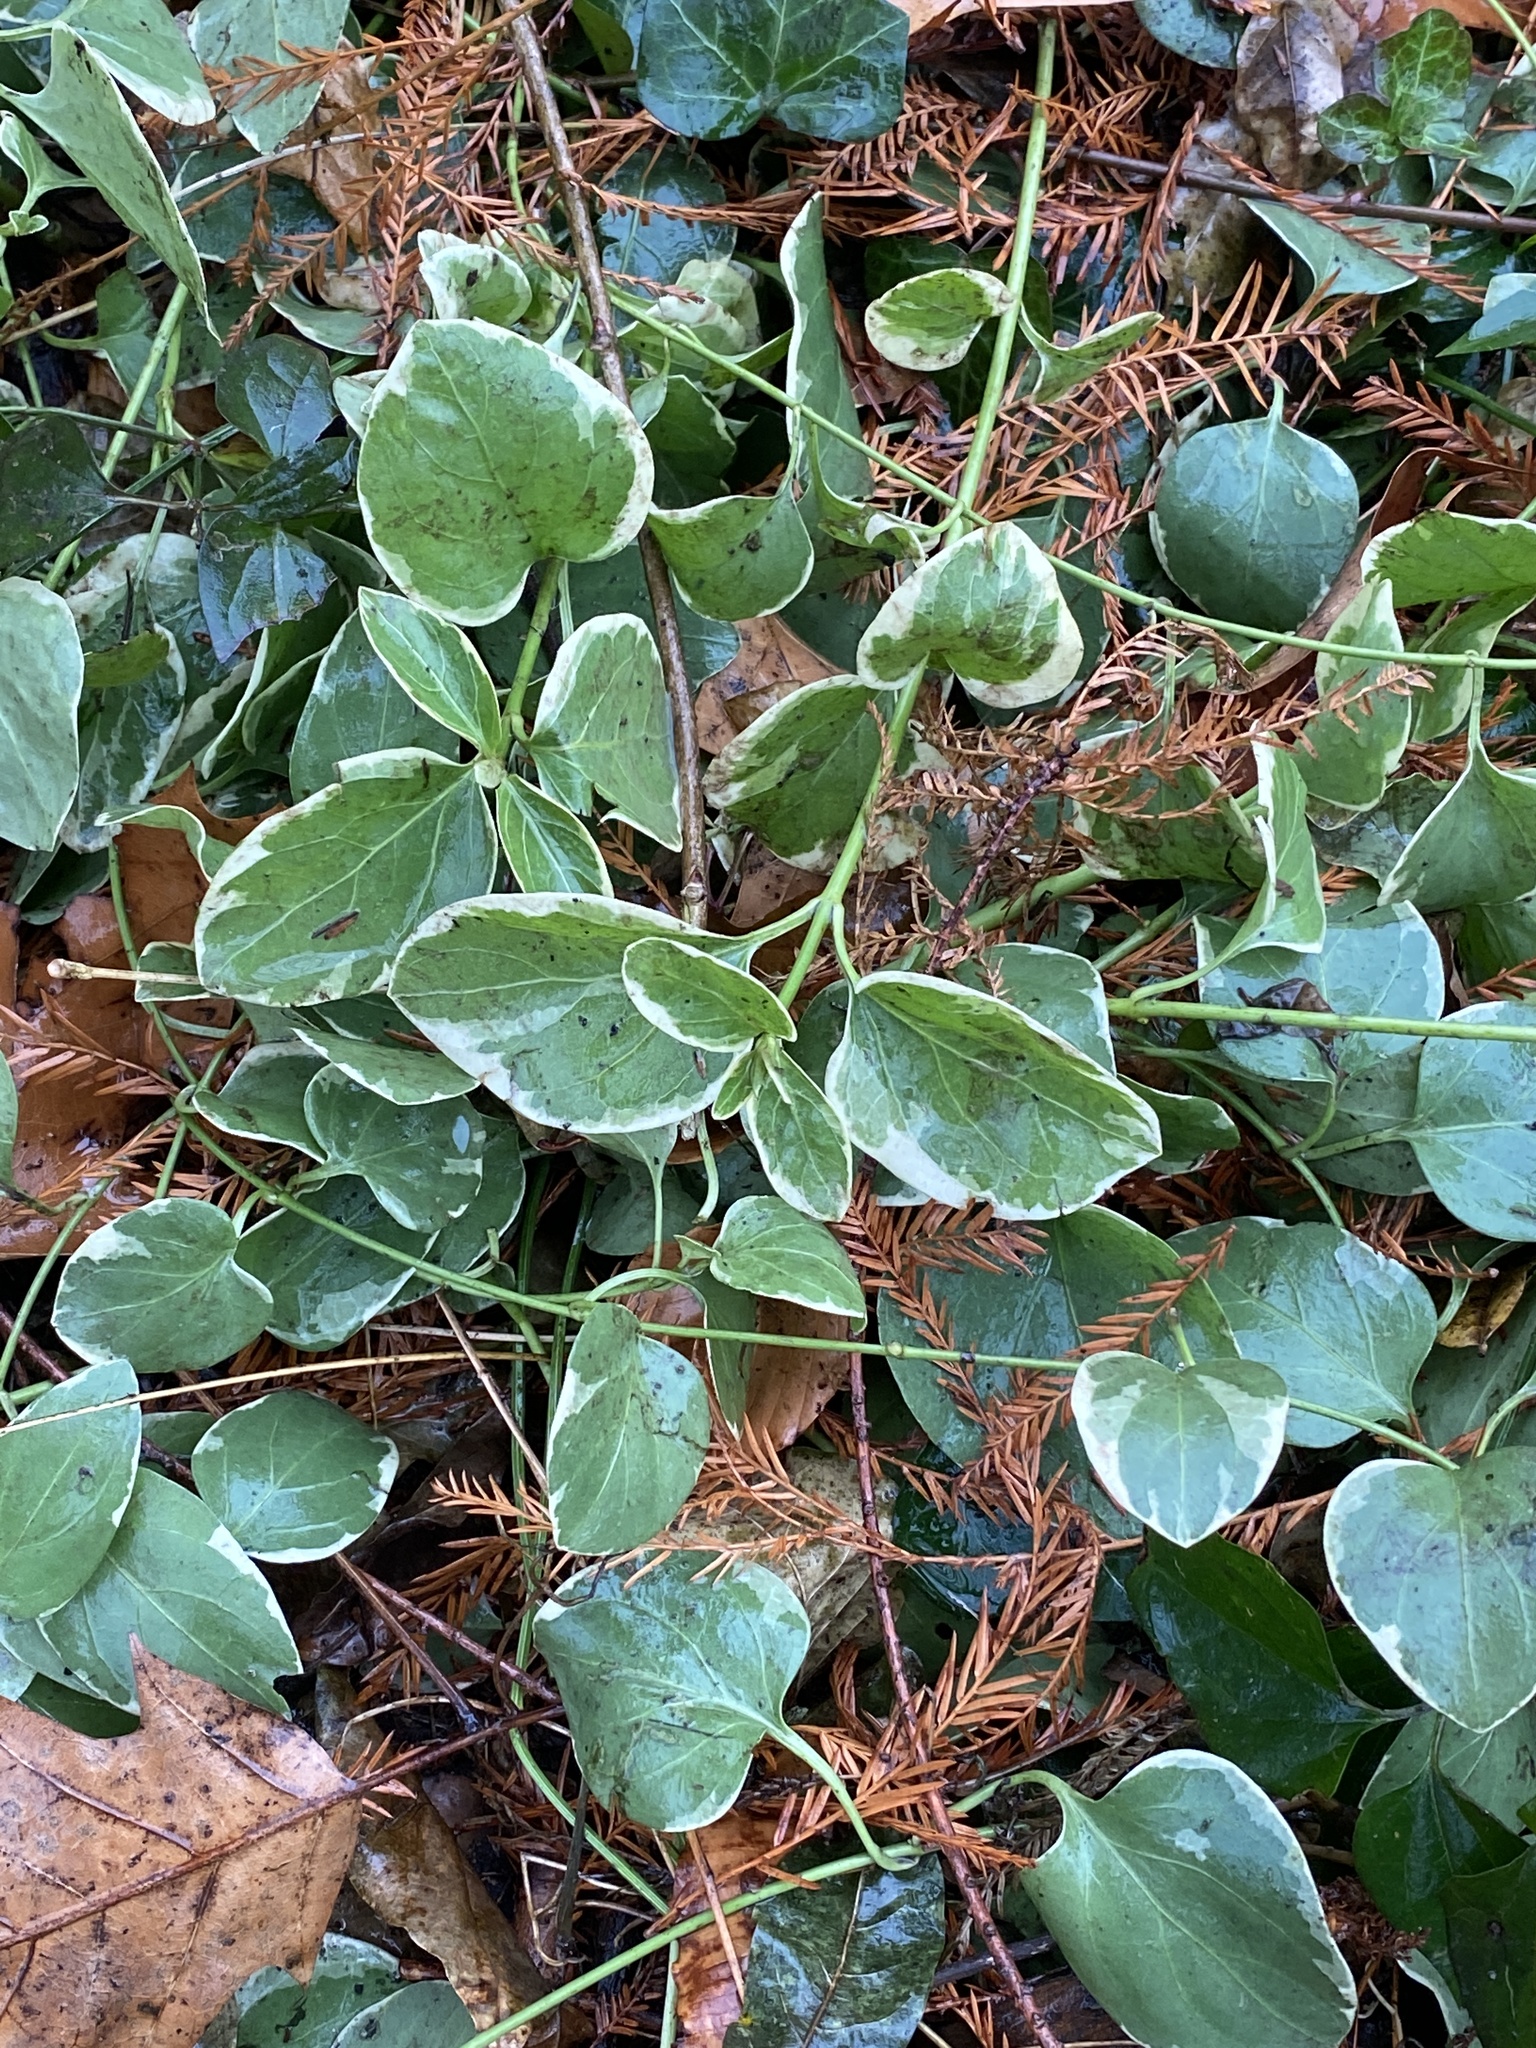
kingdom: Plantae
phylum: Tracheophyta
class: Magnoliopsida
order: Gentianales
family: Apocynaceae
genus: Vinca
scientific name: Vinca major
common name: Greater periwinkle
